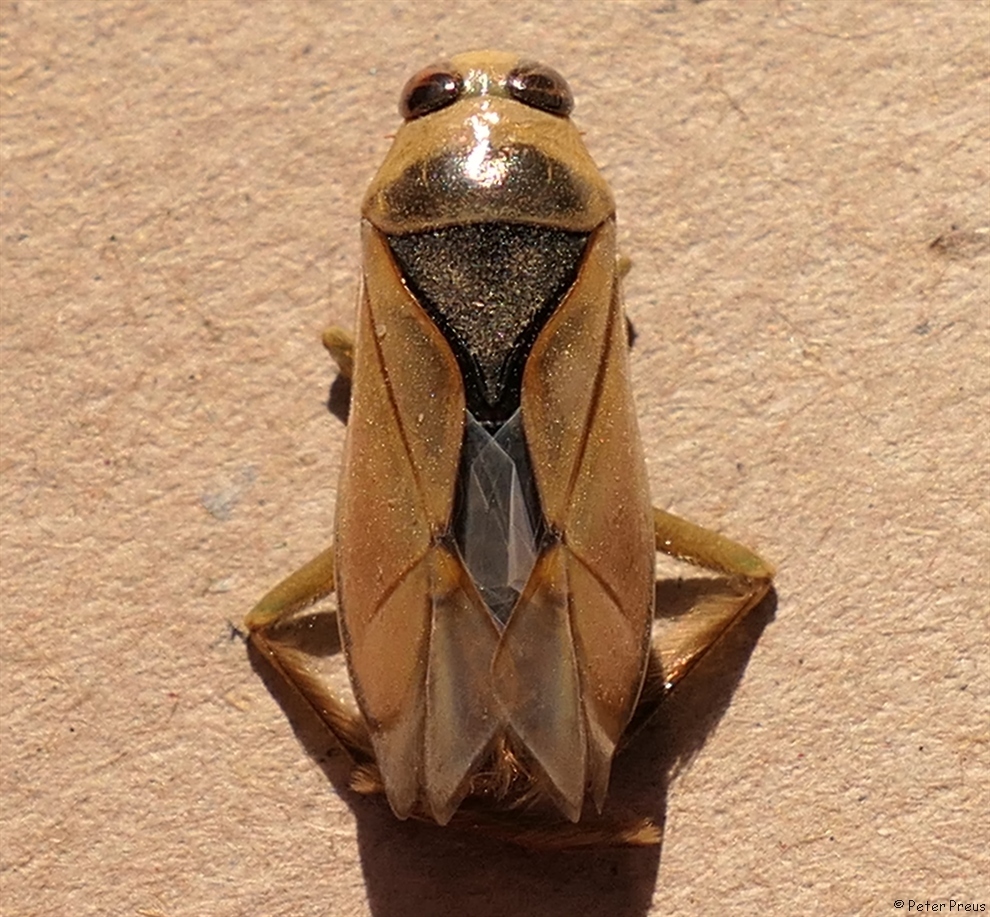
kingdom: Animalia
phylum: Arthropoda
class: Insecta
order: Hemiptera
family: Notonectidae
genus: Notonecta
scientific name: Notonecta glauca
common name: Common water-boatman
